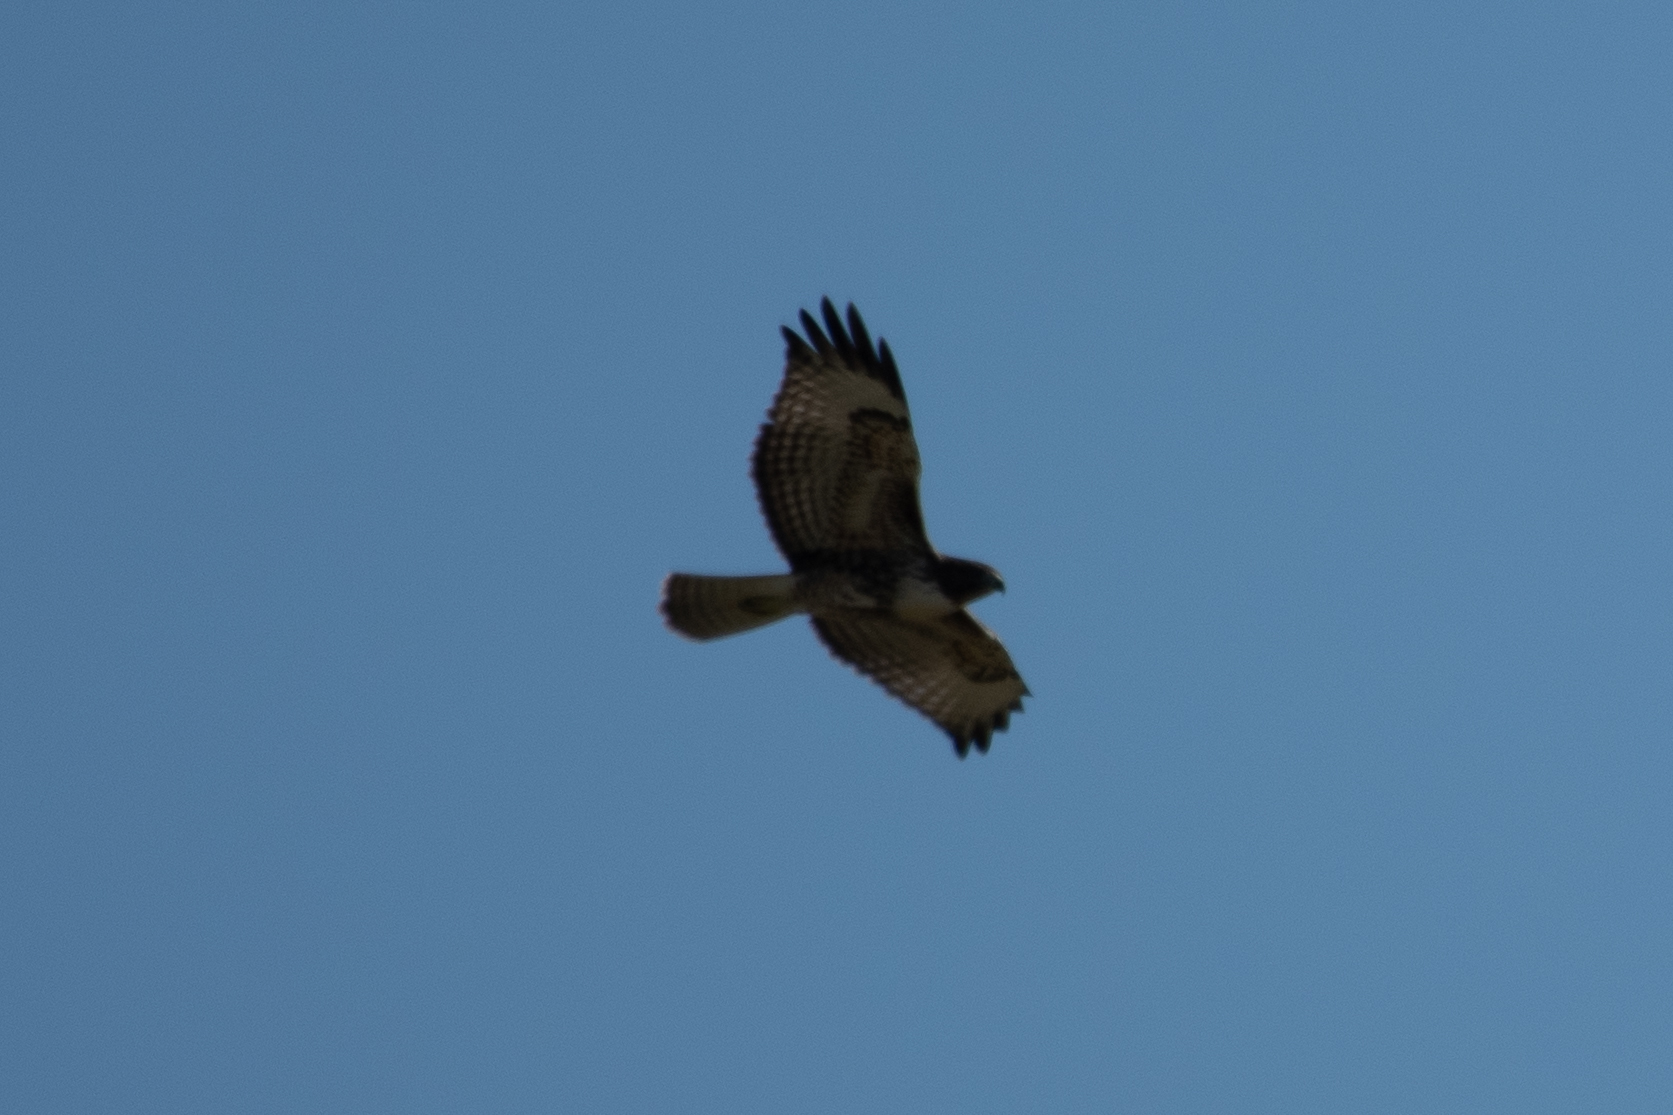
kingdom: Animalia
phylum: Chordata
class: Aves
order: Accipitriformes
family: Accipitridae
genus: Buteo
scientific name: Buteo jamaicensis
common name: Red-tailed hawk
